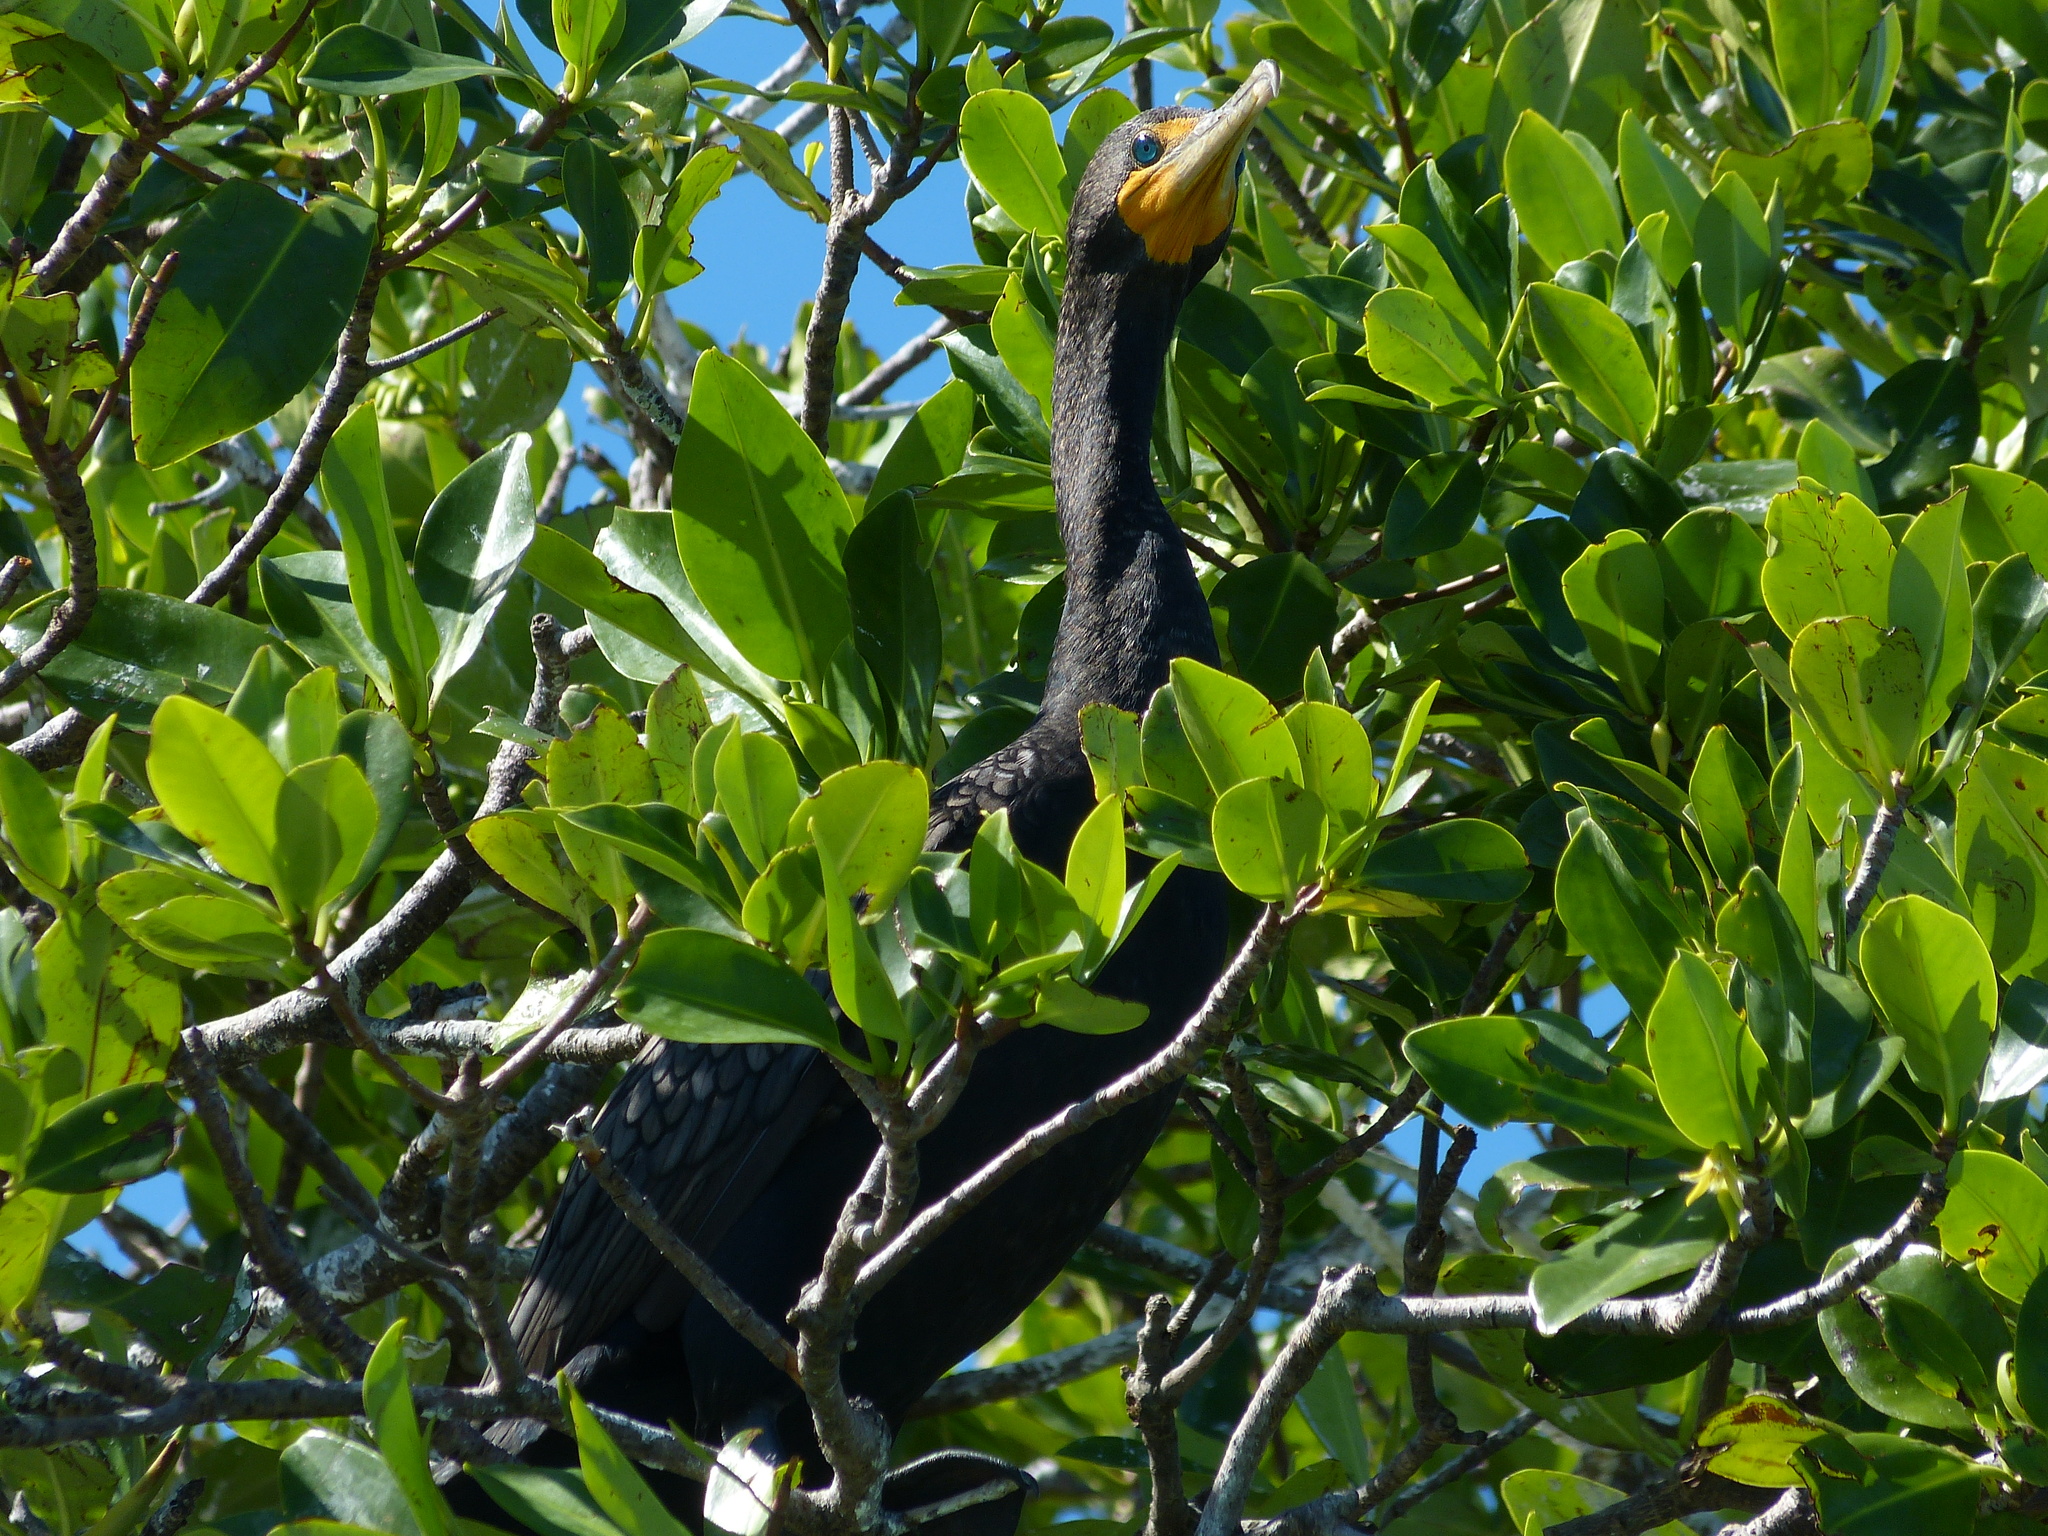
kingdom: Animalia
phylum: Chordata
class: Aves
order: Suliformes
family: Phalacrocoracidae
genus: Phalacrocorax
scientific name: Phalacrocorax auritus
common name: Double-crested cormorant
